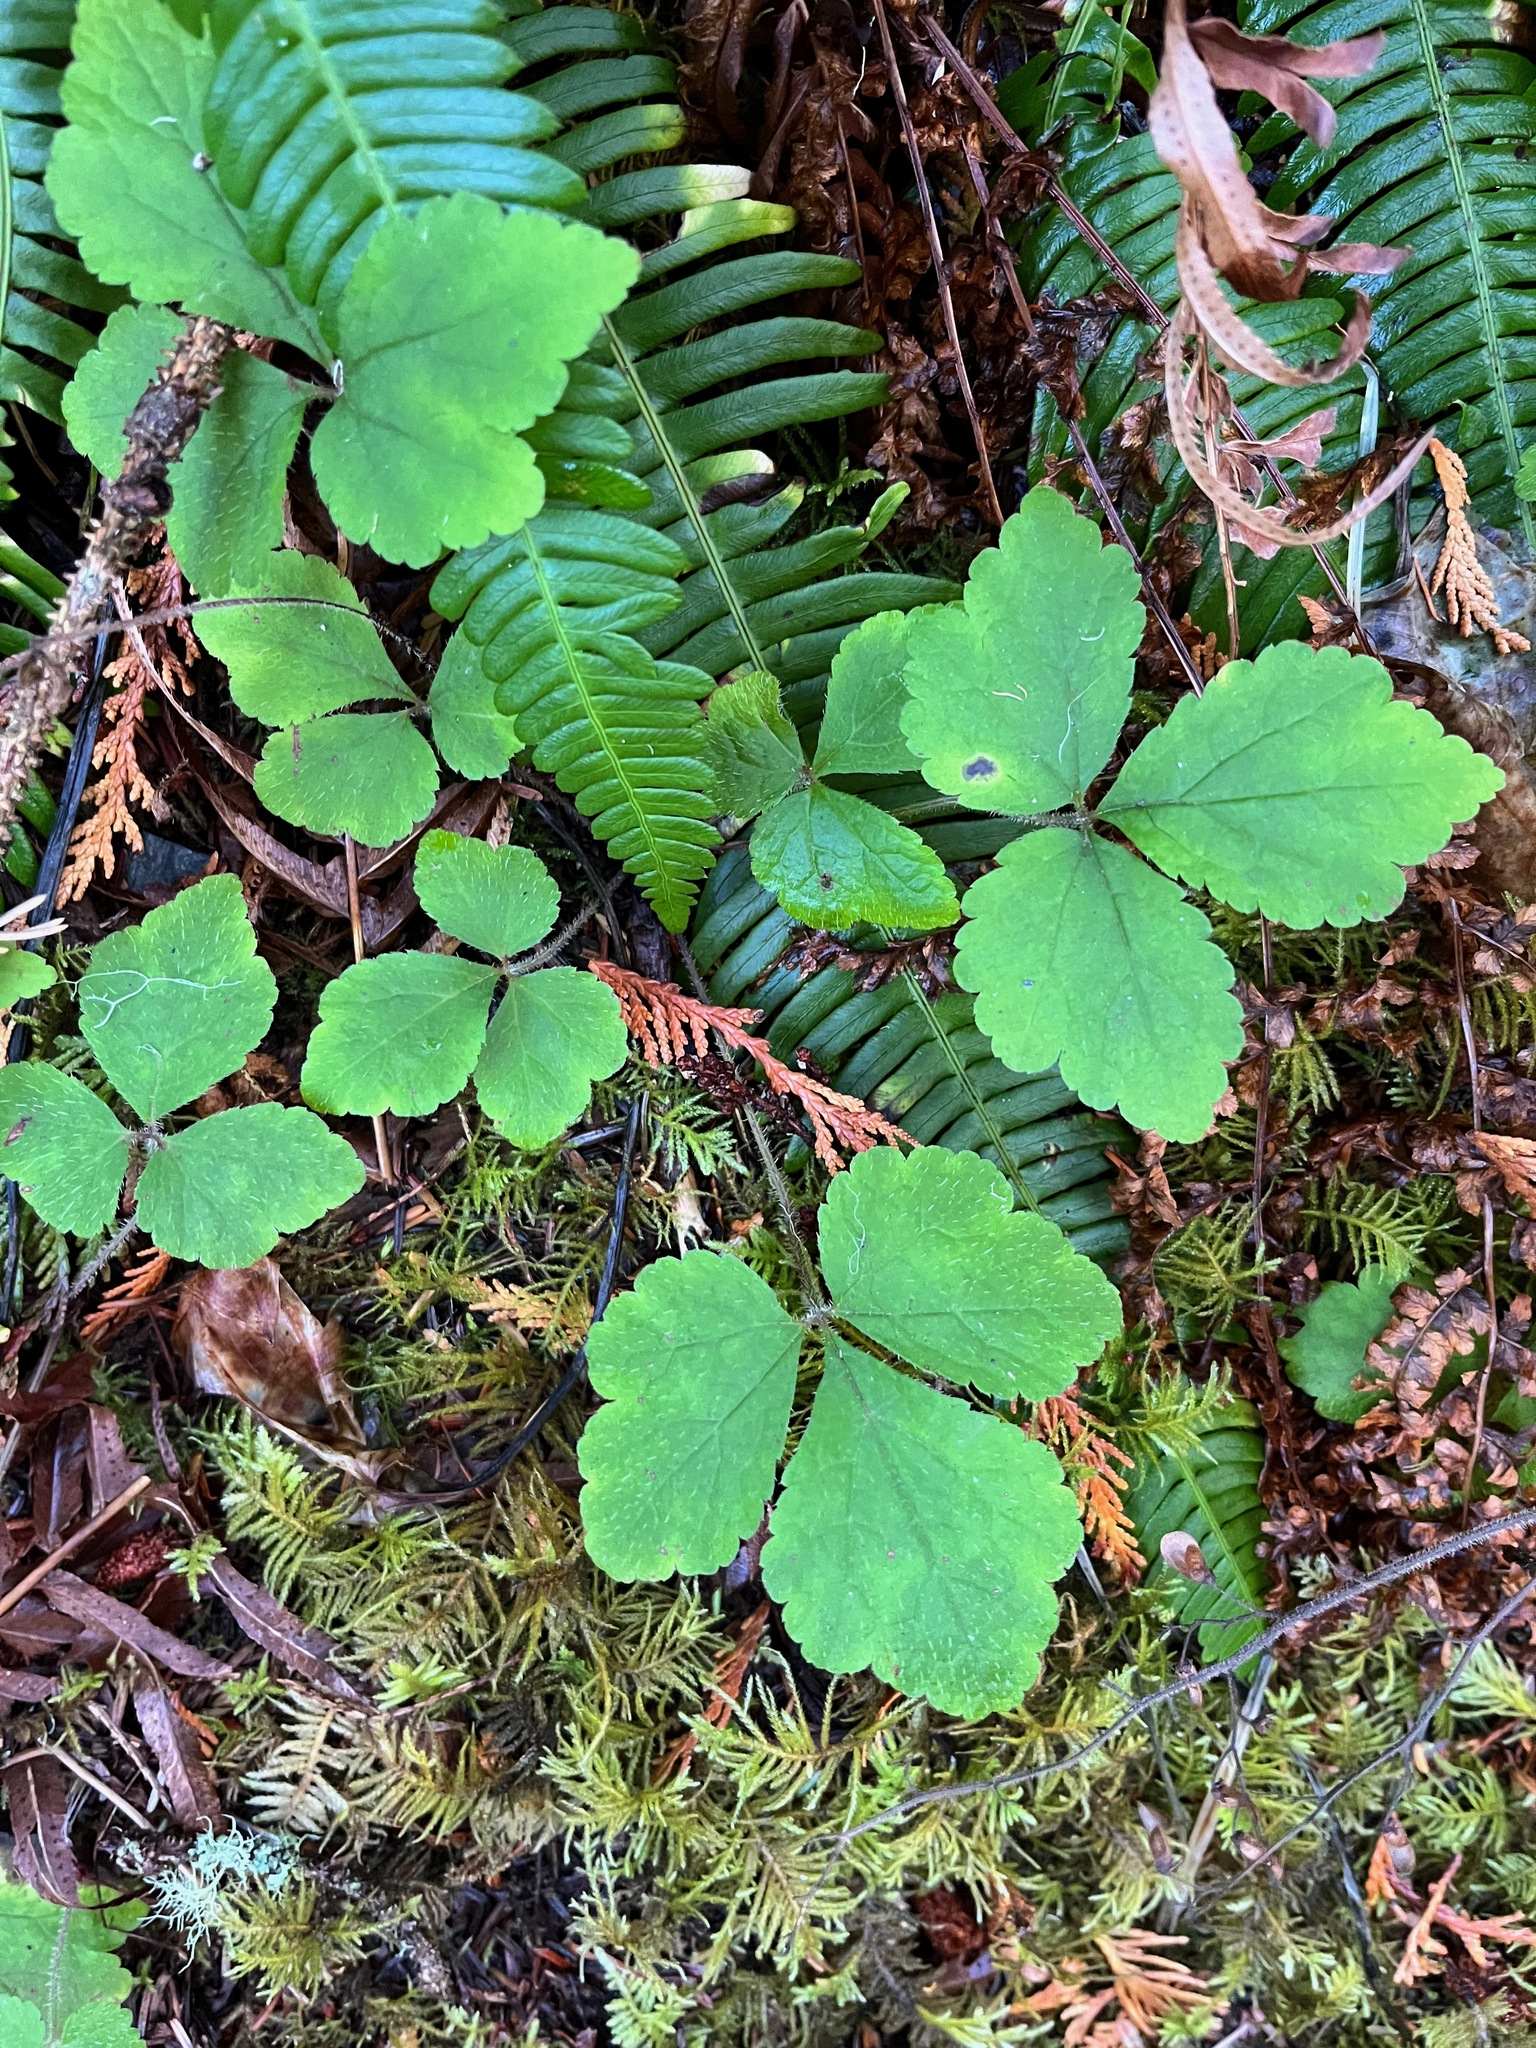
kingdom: Plantae
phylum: Tracheophyta
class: Magnoliopsida
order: Saxifragales
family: Saxifragaceae
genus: Tiarella
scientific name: Tiarella trifoliata
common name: Sugar-scoop
